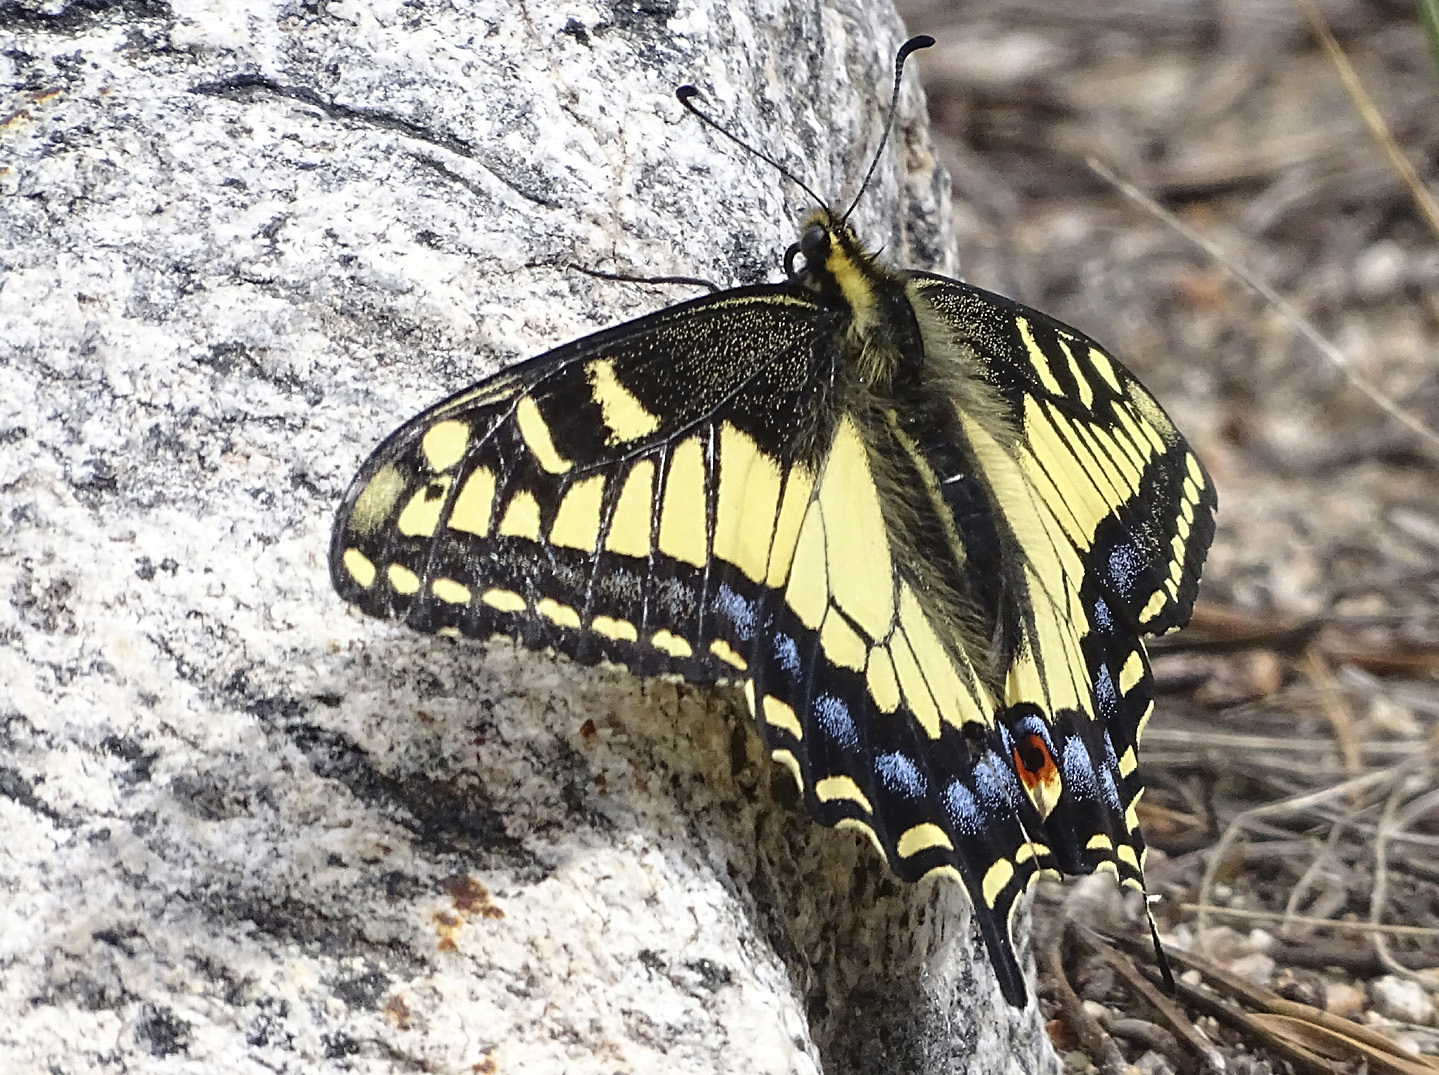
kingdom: Animalia
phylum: Arthropoda
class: Insecta
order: Lepidoptera
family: Papilionidae
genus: Papilio
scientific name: Papilio zelicaon
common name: Anise swallowtail
